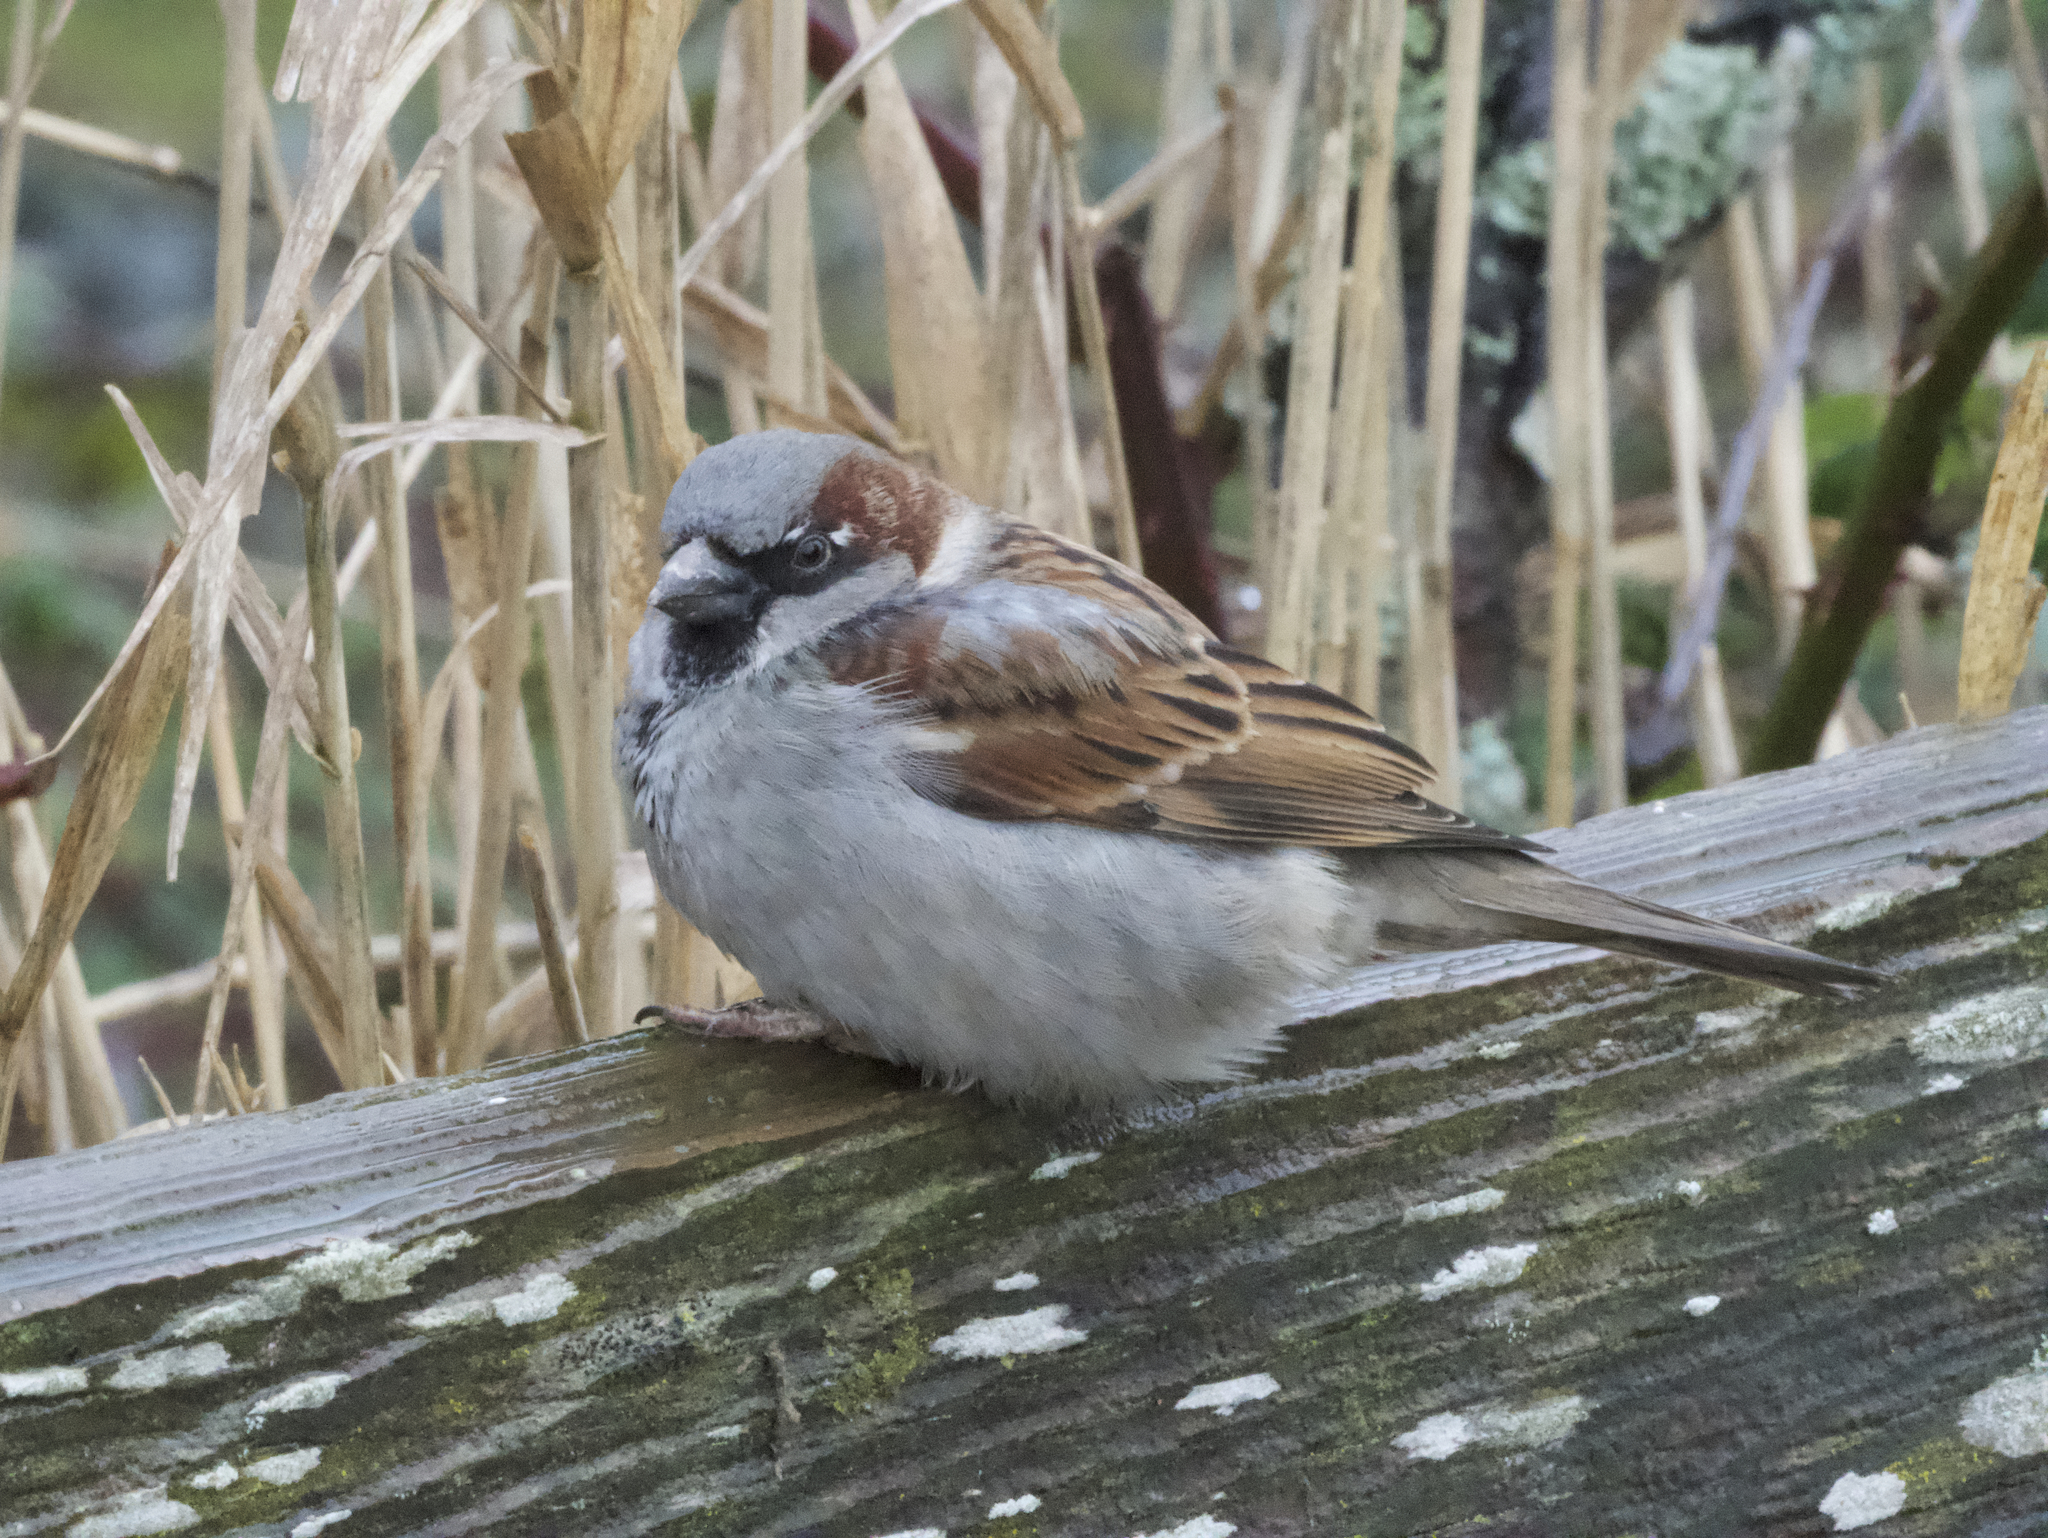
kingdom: Animalia
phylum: Chordata
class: Aves
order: Passeriformes
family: Passeridae
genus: Passer
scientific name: Passer domesticus
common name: House sparrow
